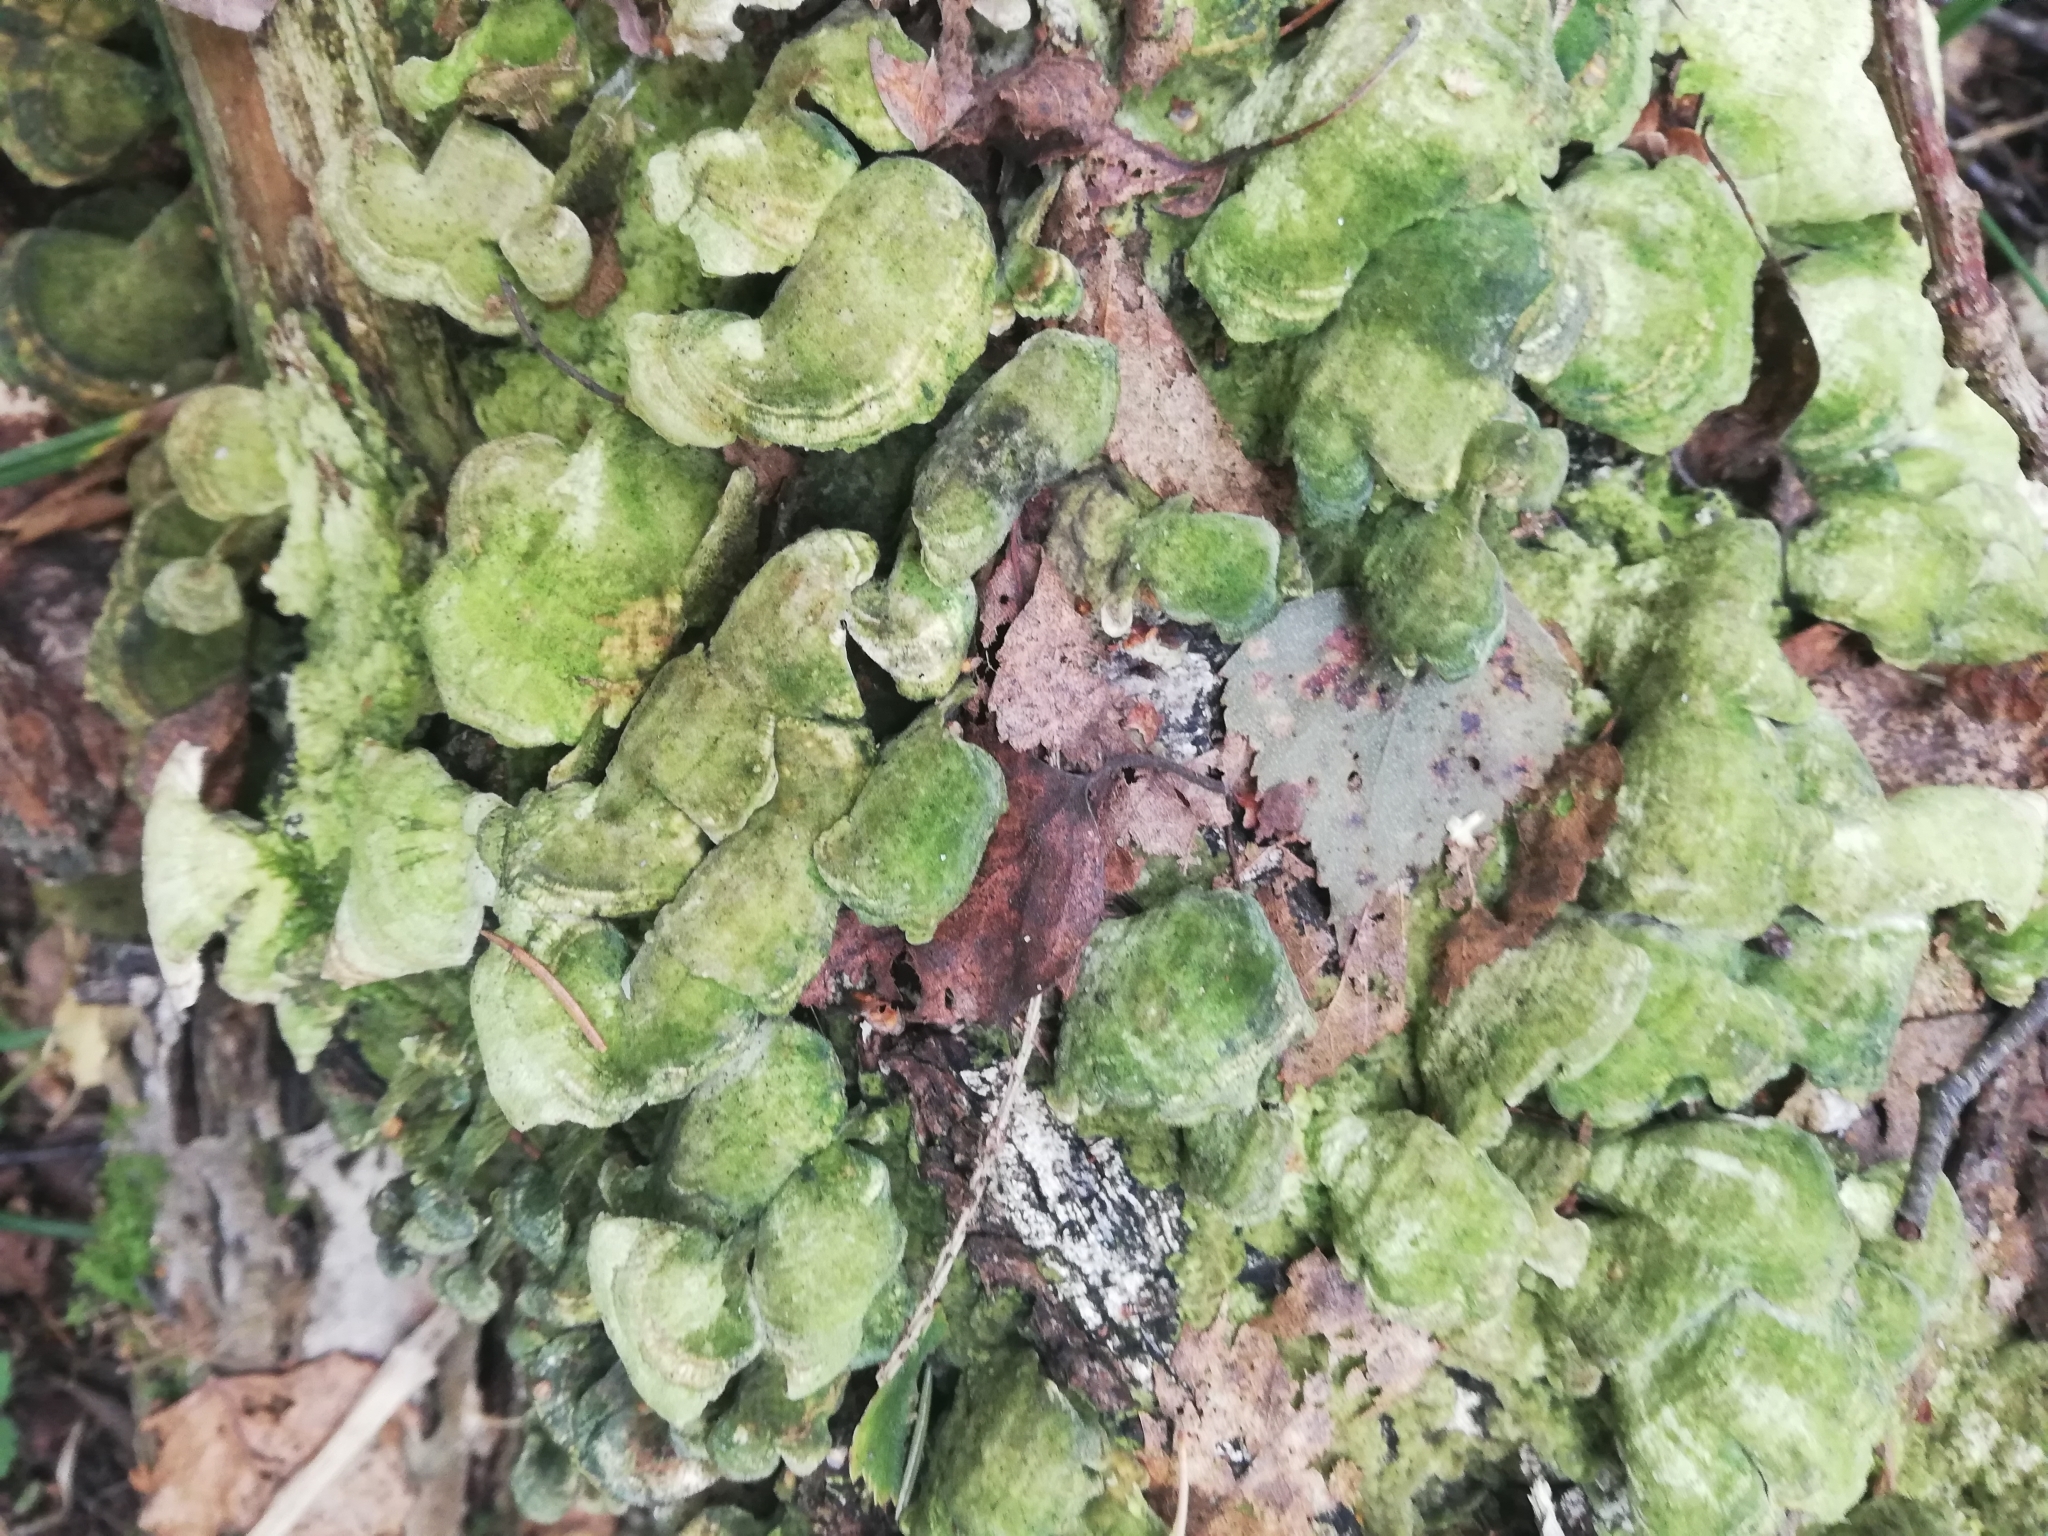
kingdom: Fungi
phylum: Basidiomycota
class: Agaricomycetes
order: Hymenochaetales
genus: Trichaptum
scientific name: Trichaptum biforme
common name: Violet-toothed polypore
